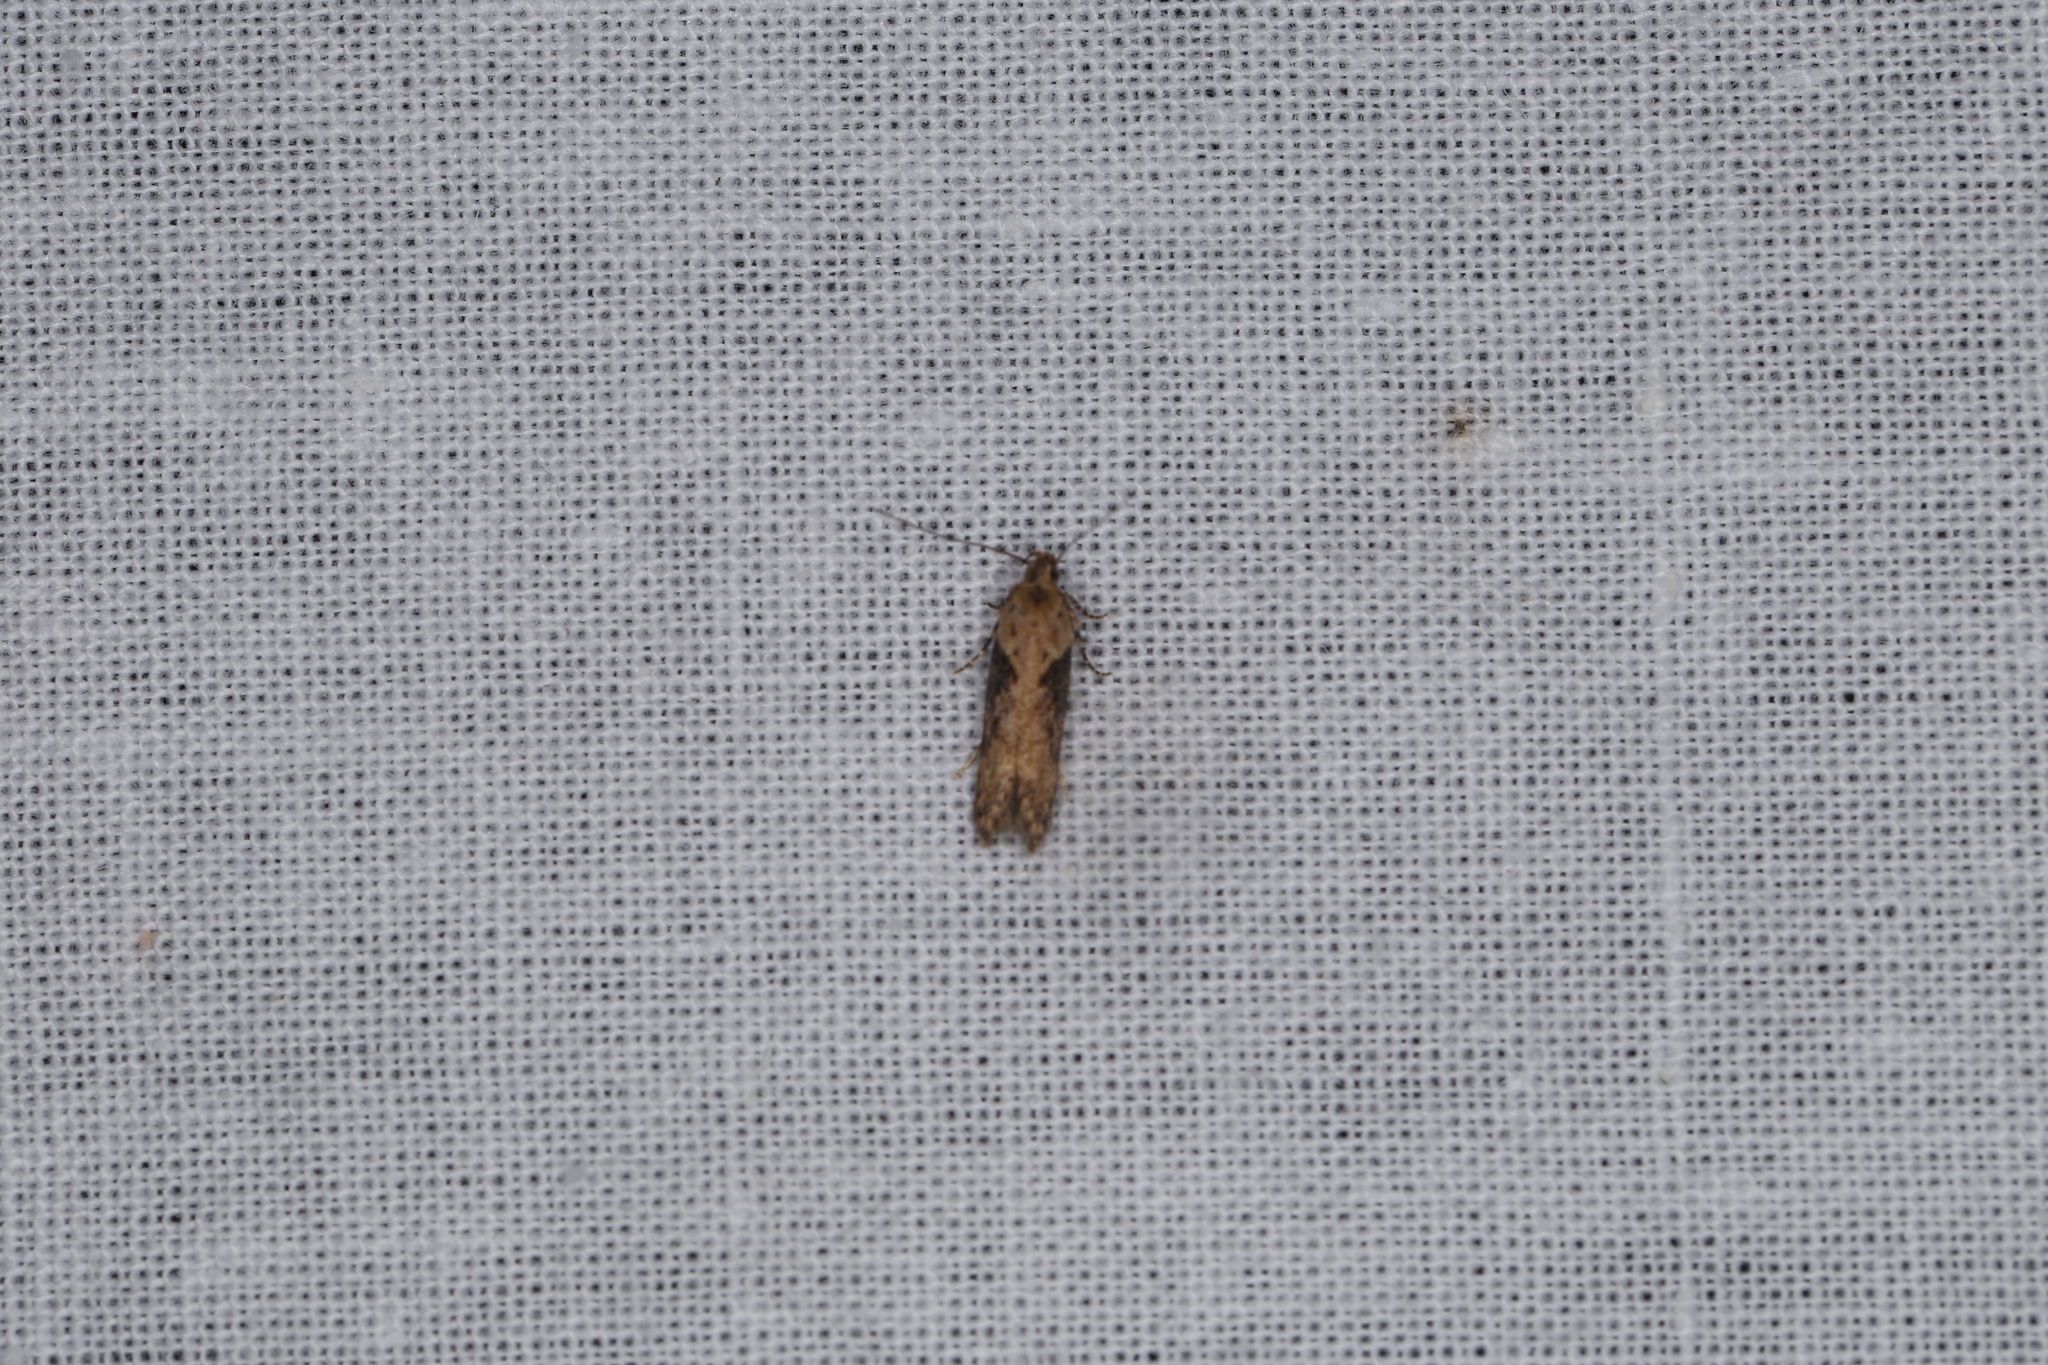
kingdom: Animalia
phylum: Arthropoda
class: Insecta
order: Lepidoptera
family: Gelechiidae
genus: Scrobipalpa
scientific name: Scrobipalpa costella
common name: Winter groundling
